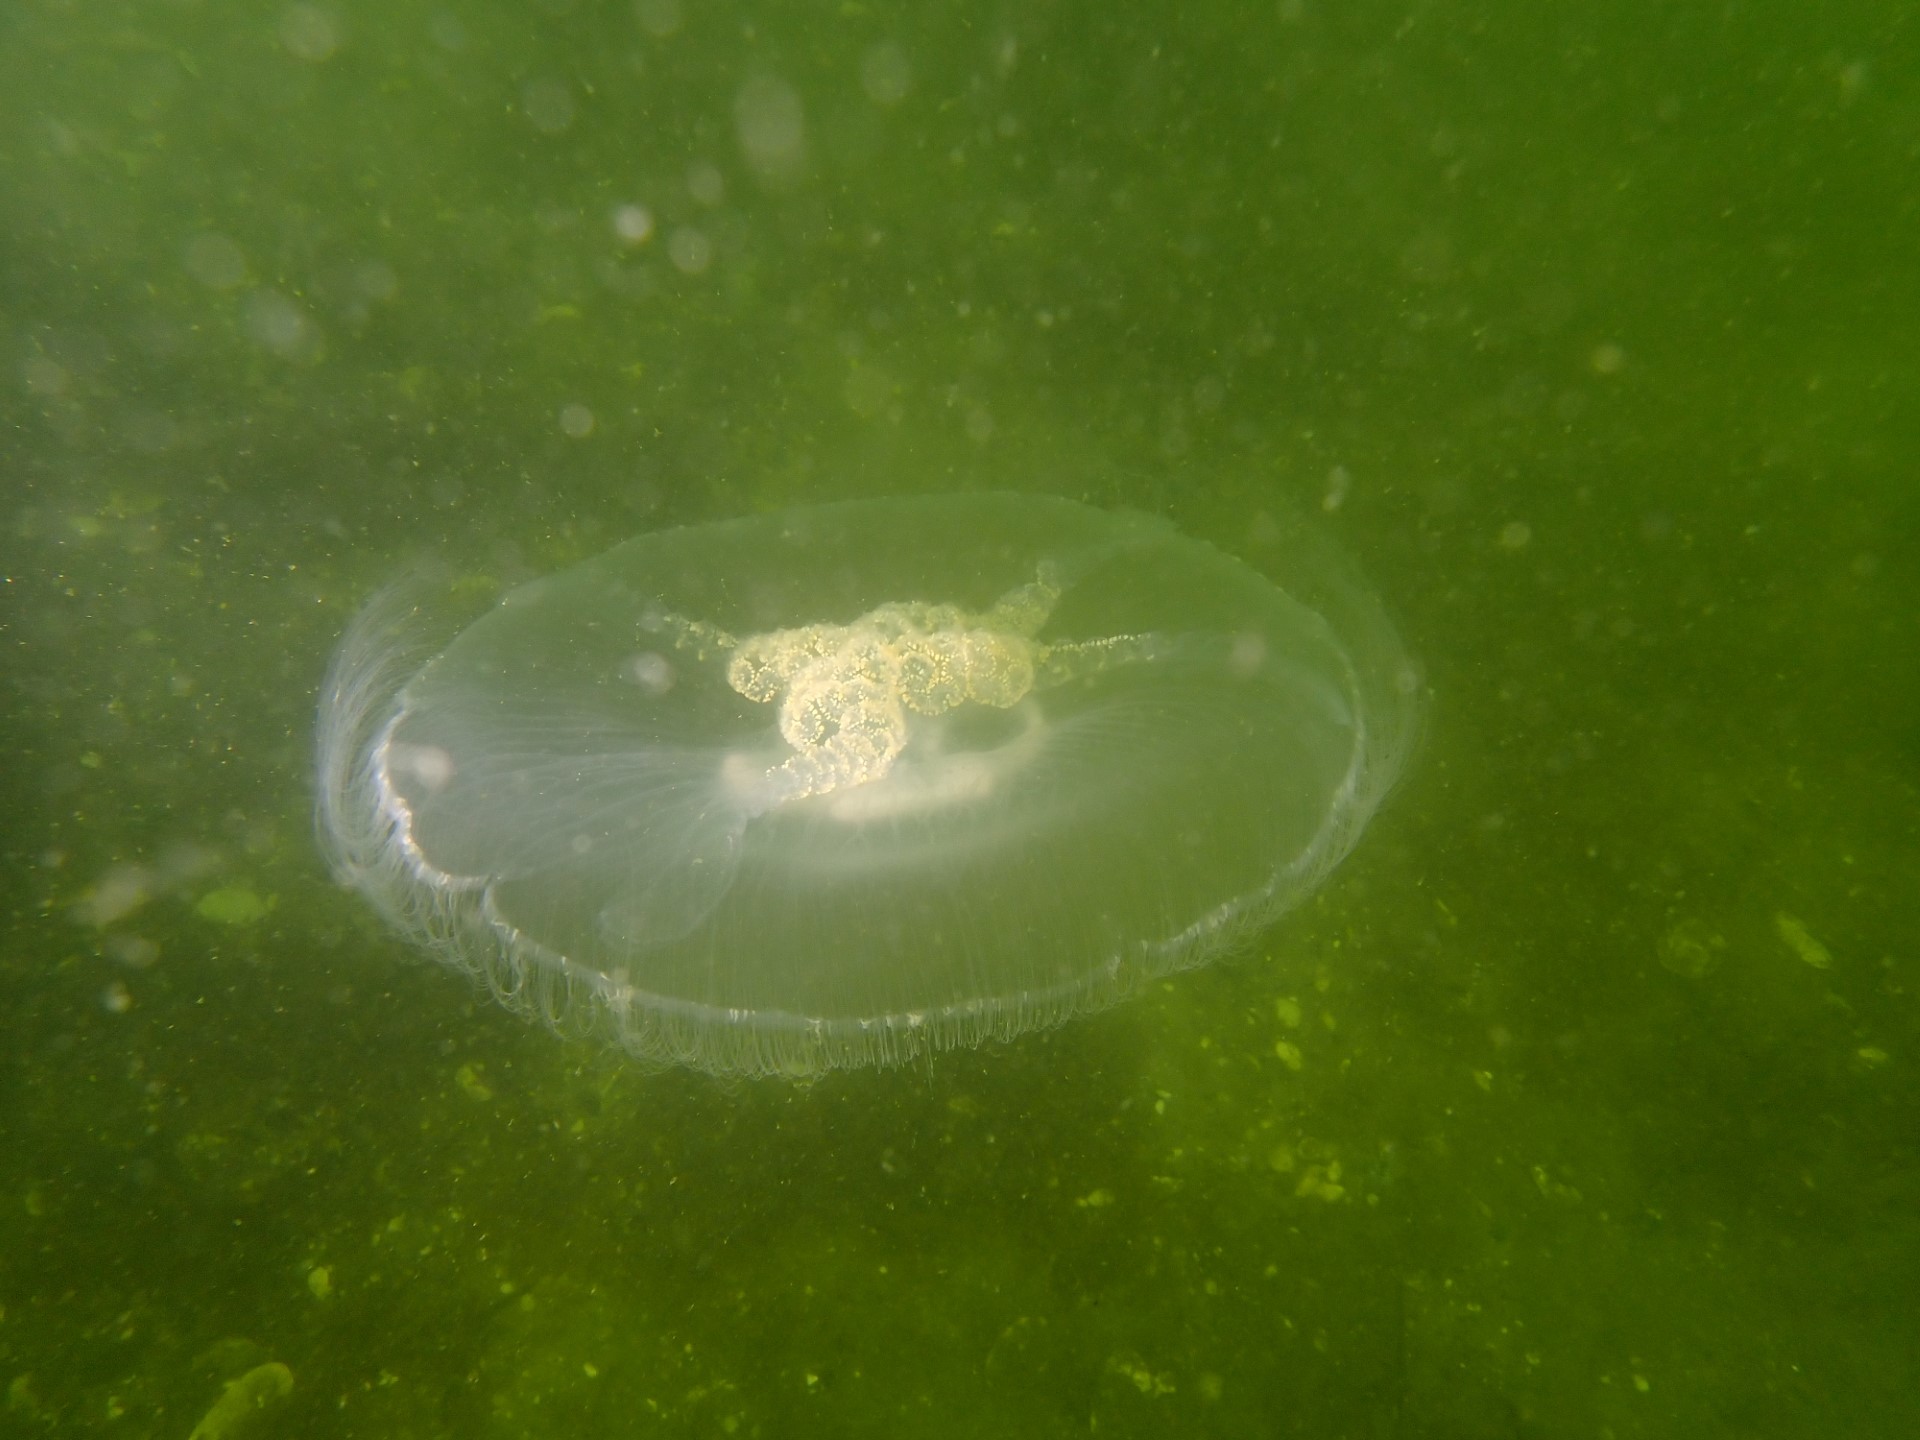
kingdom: Animalia
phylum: Cnidaria
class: Scyphozoa
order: Semaeostomeae
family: Ulmaridae
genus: Aurelia
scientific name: Aurelia aurita
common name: Moon jellyfish
